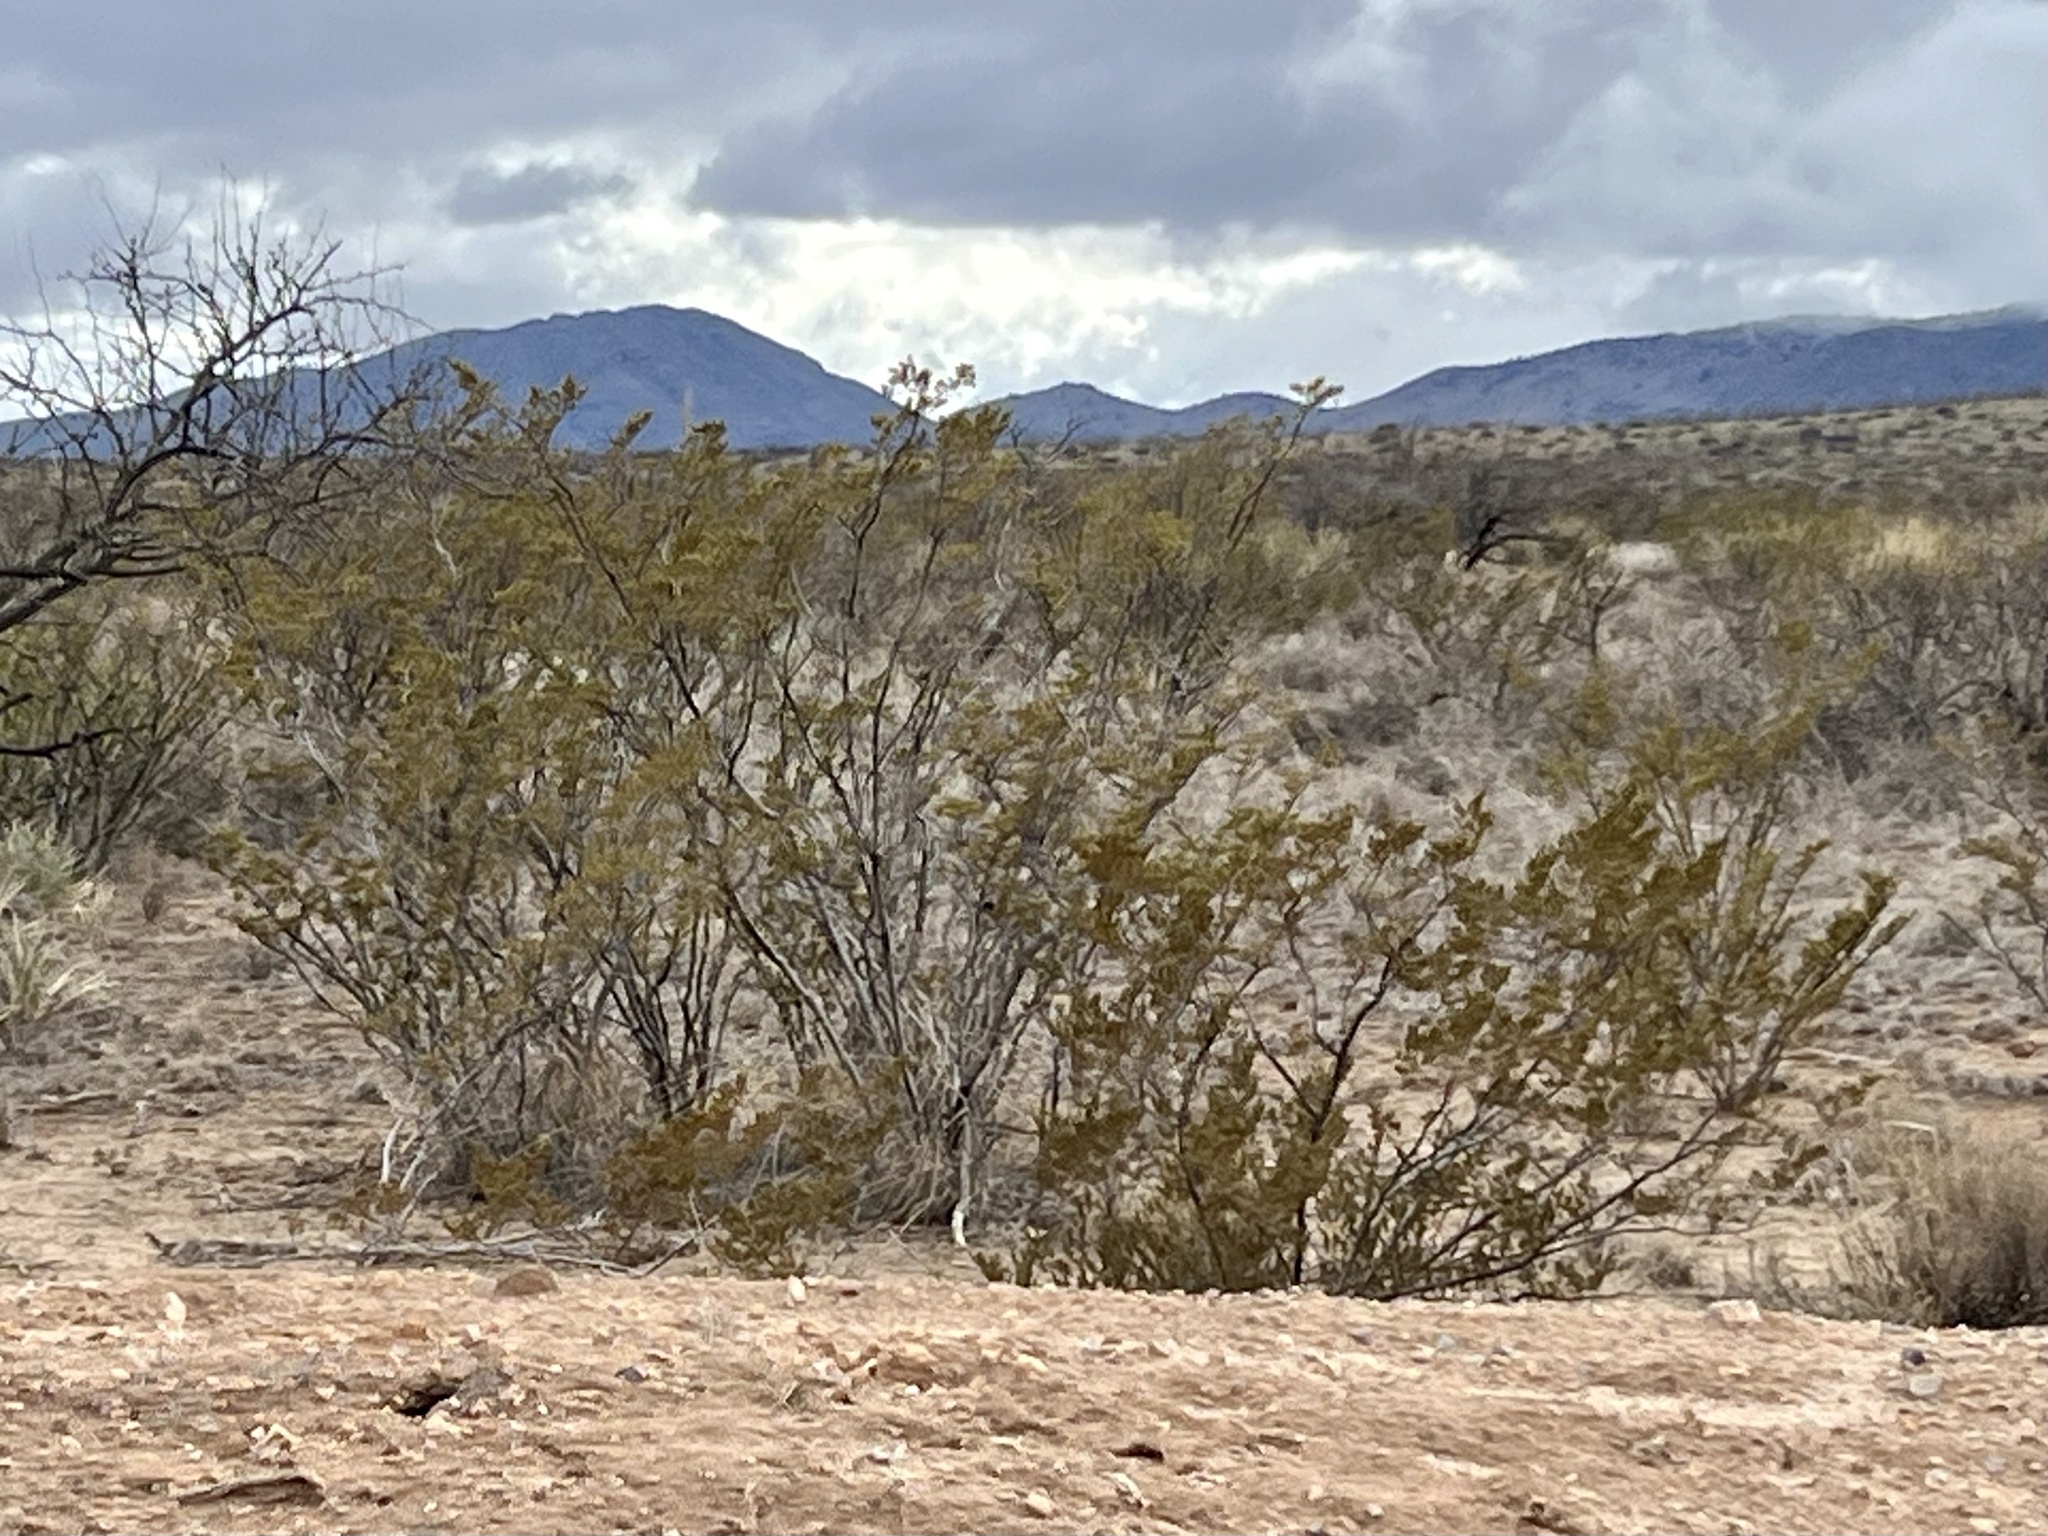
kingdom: Plantae
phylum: Tracheophyta
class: Magnoliopsida
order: Zygophyllales
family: Zygophyllaceae
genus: Larrea
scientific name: Larrea tridentata
